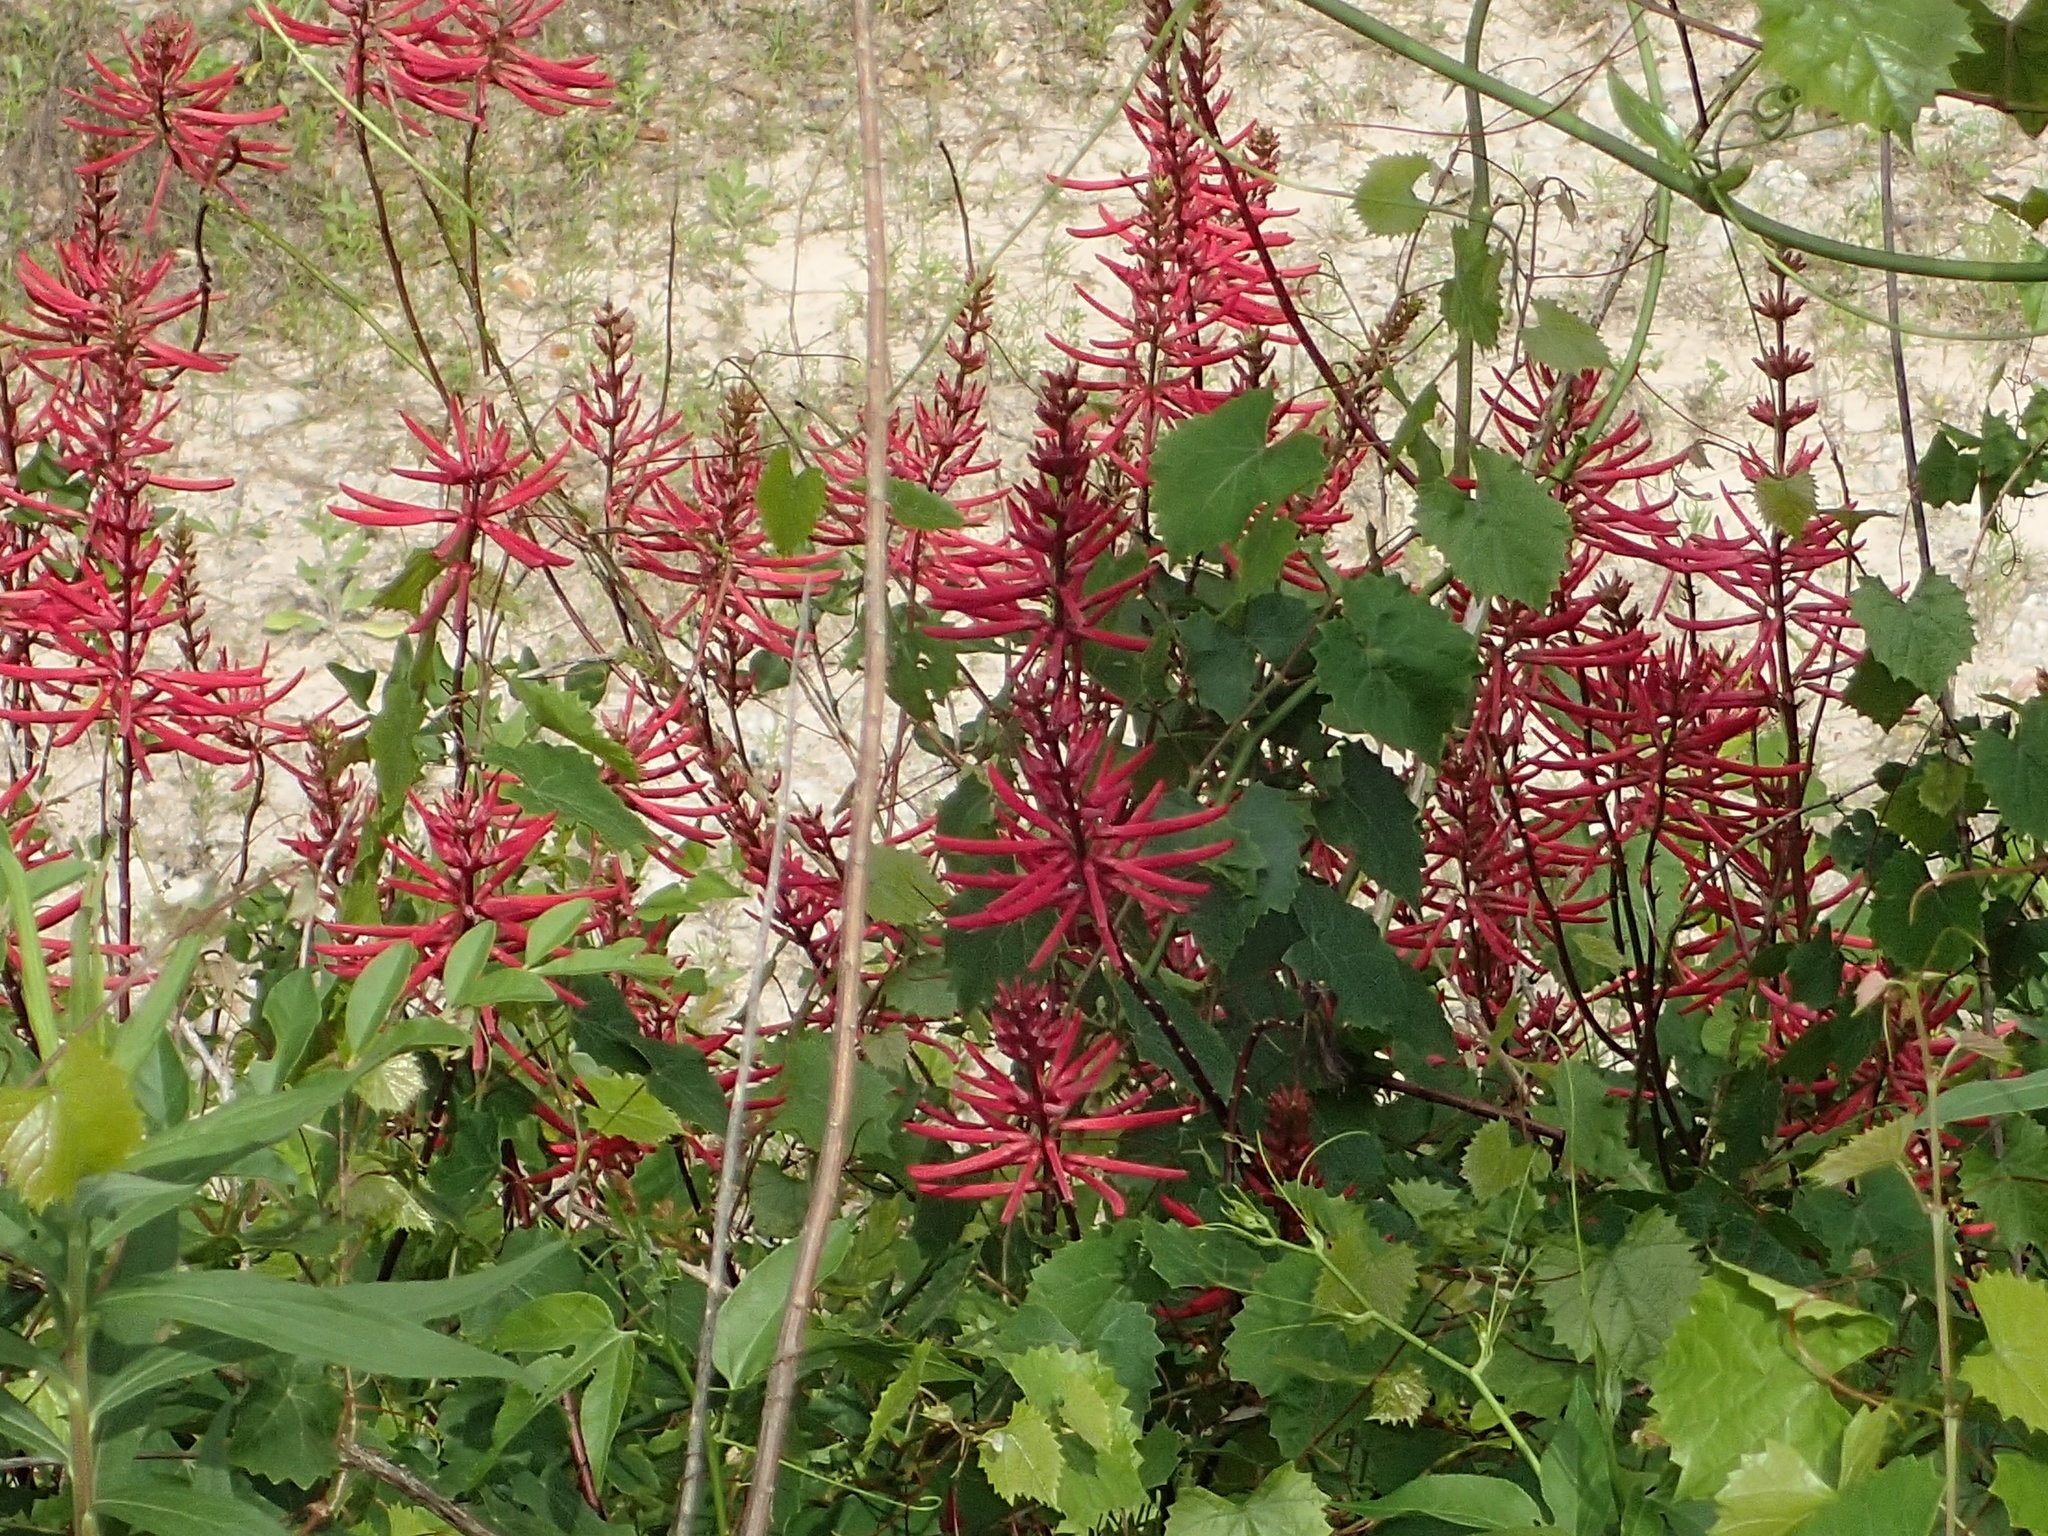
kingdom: Plantae
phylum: Tracheophyta
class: Magnoliopsida
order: Fabales
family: Fabaceae
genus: Erythrina
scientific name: Erythrina herbacea
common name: Coral-bean
